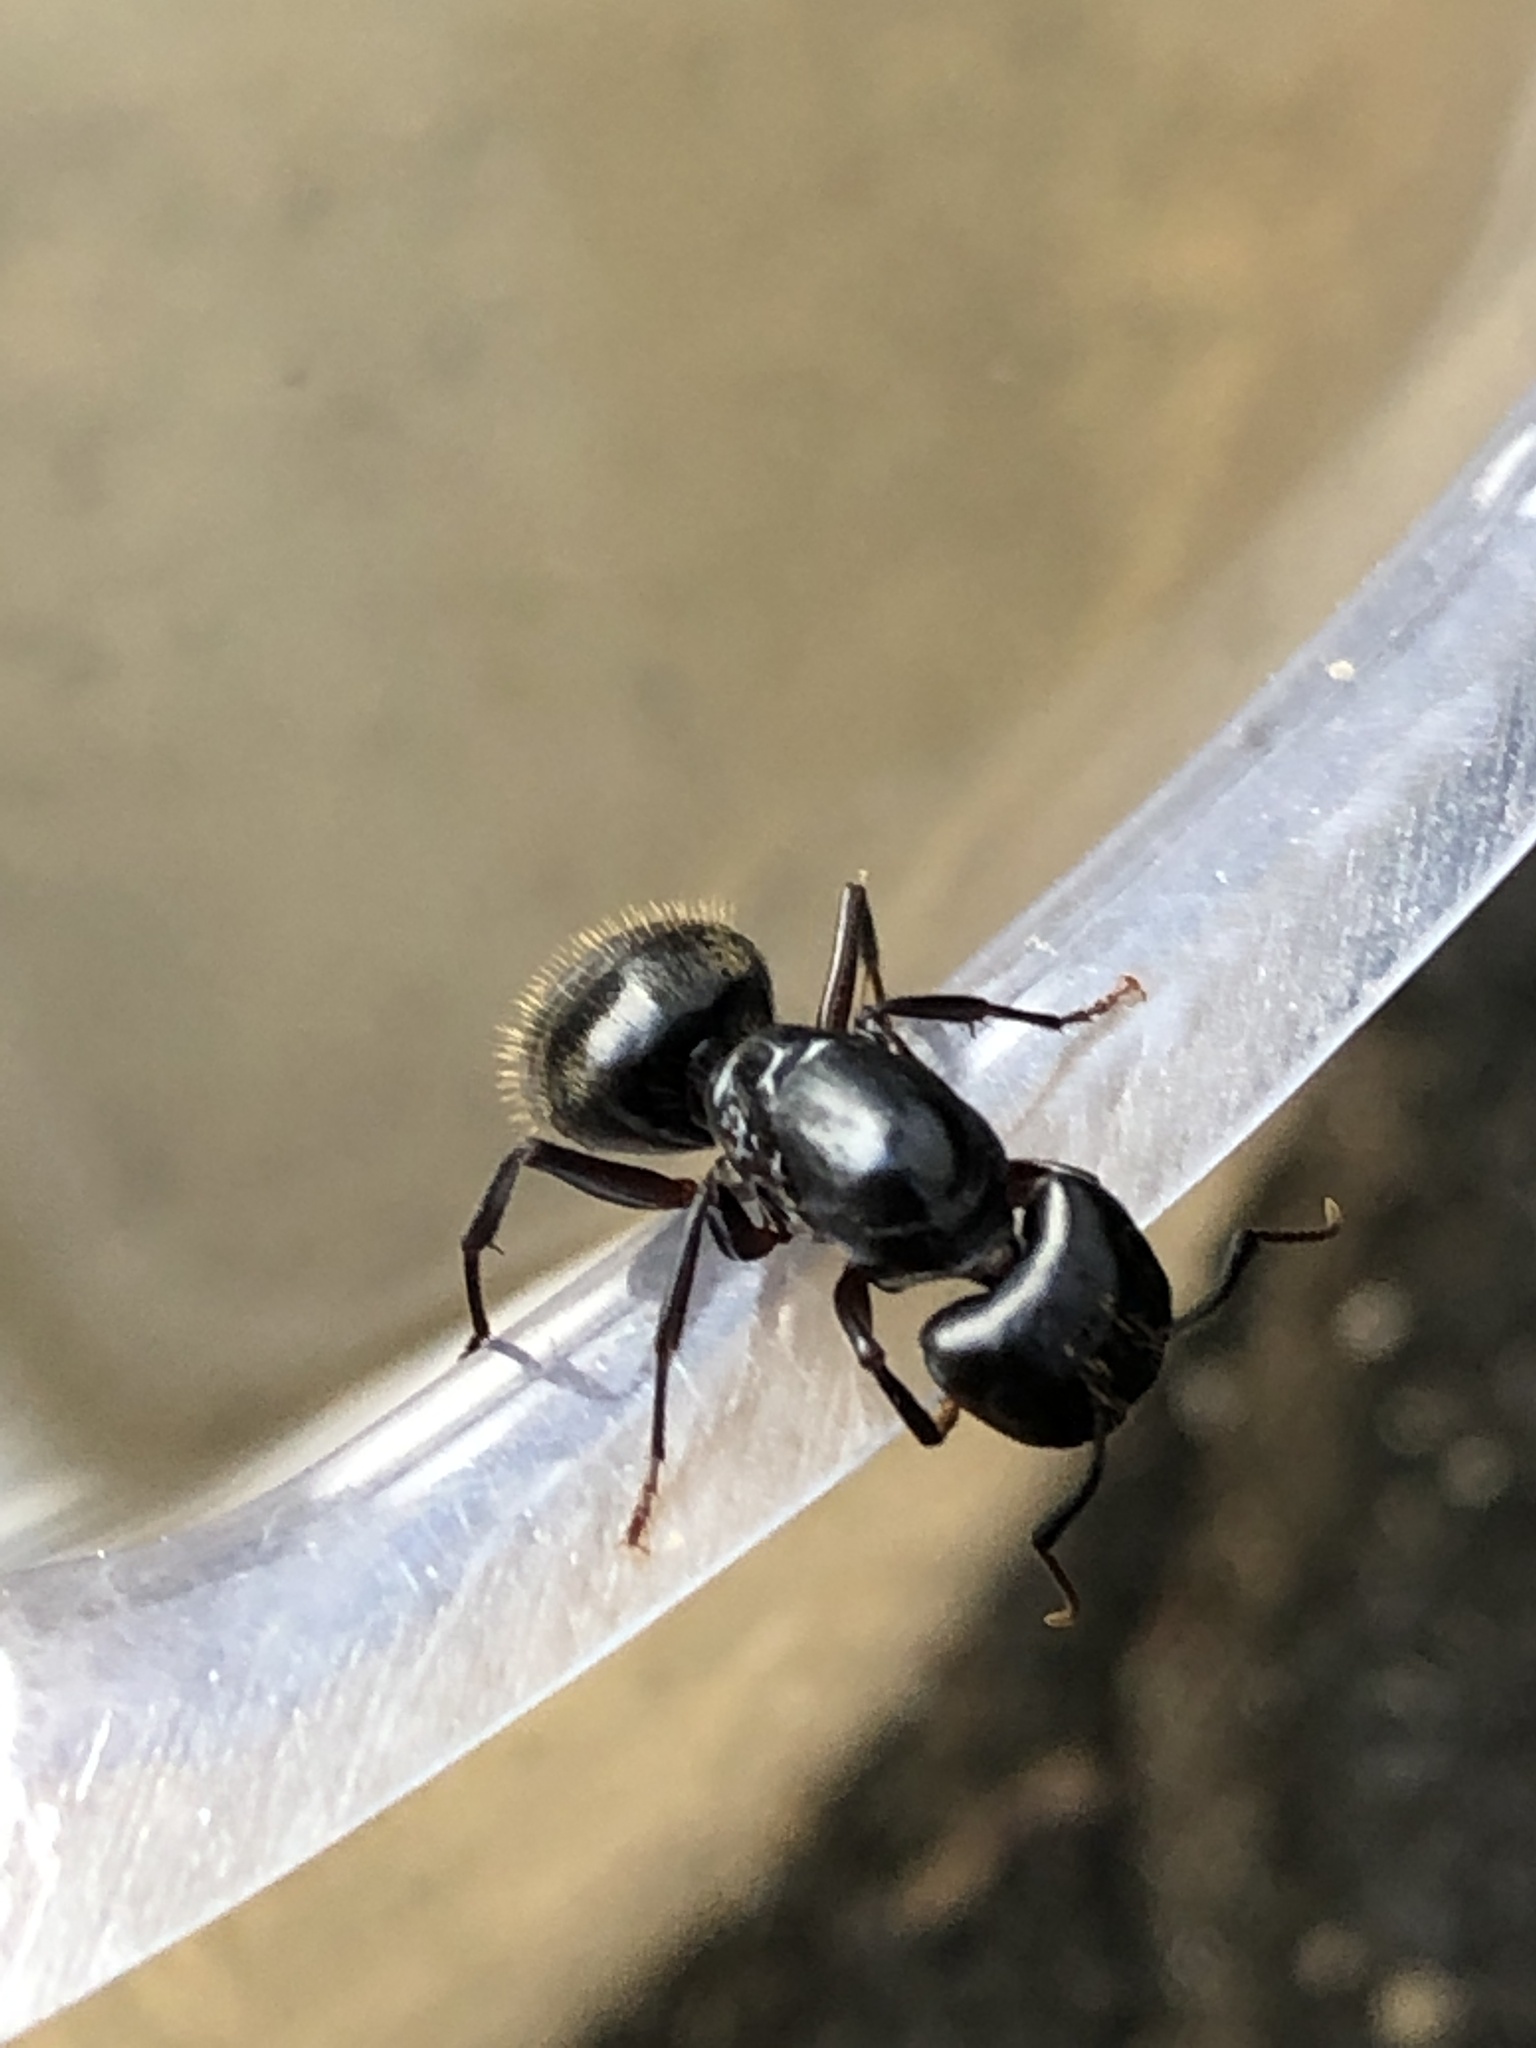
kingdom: Animalia
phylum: Arthropoda
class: Insecta
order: Hymenoptera
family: Formicidae
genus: Camponotus
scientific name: Camponotus pennsylvanicus
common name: Black carpenter ant
